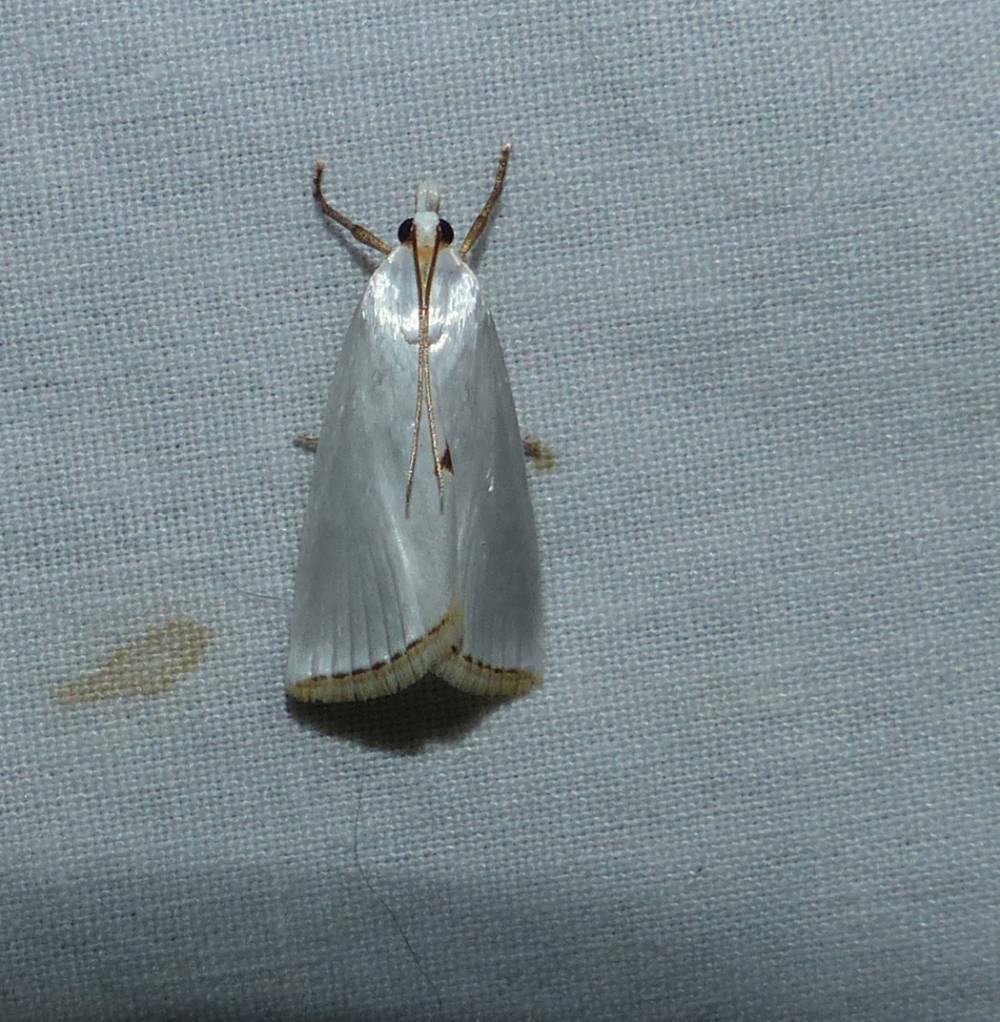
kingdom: Animalia
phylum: Arthropoda
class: Insecta
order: Lepidoptera
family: Crambidae
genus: Argyria
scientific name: Argyria nivalis
